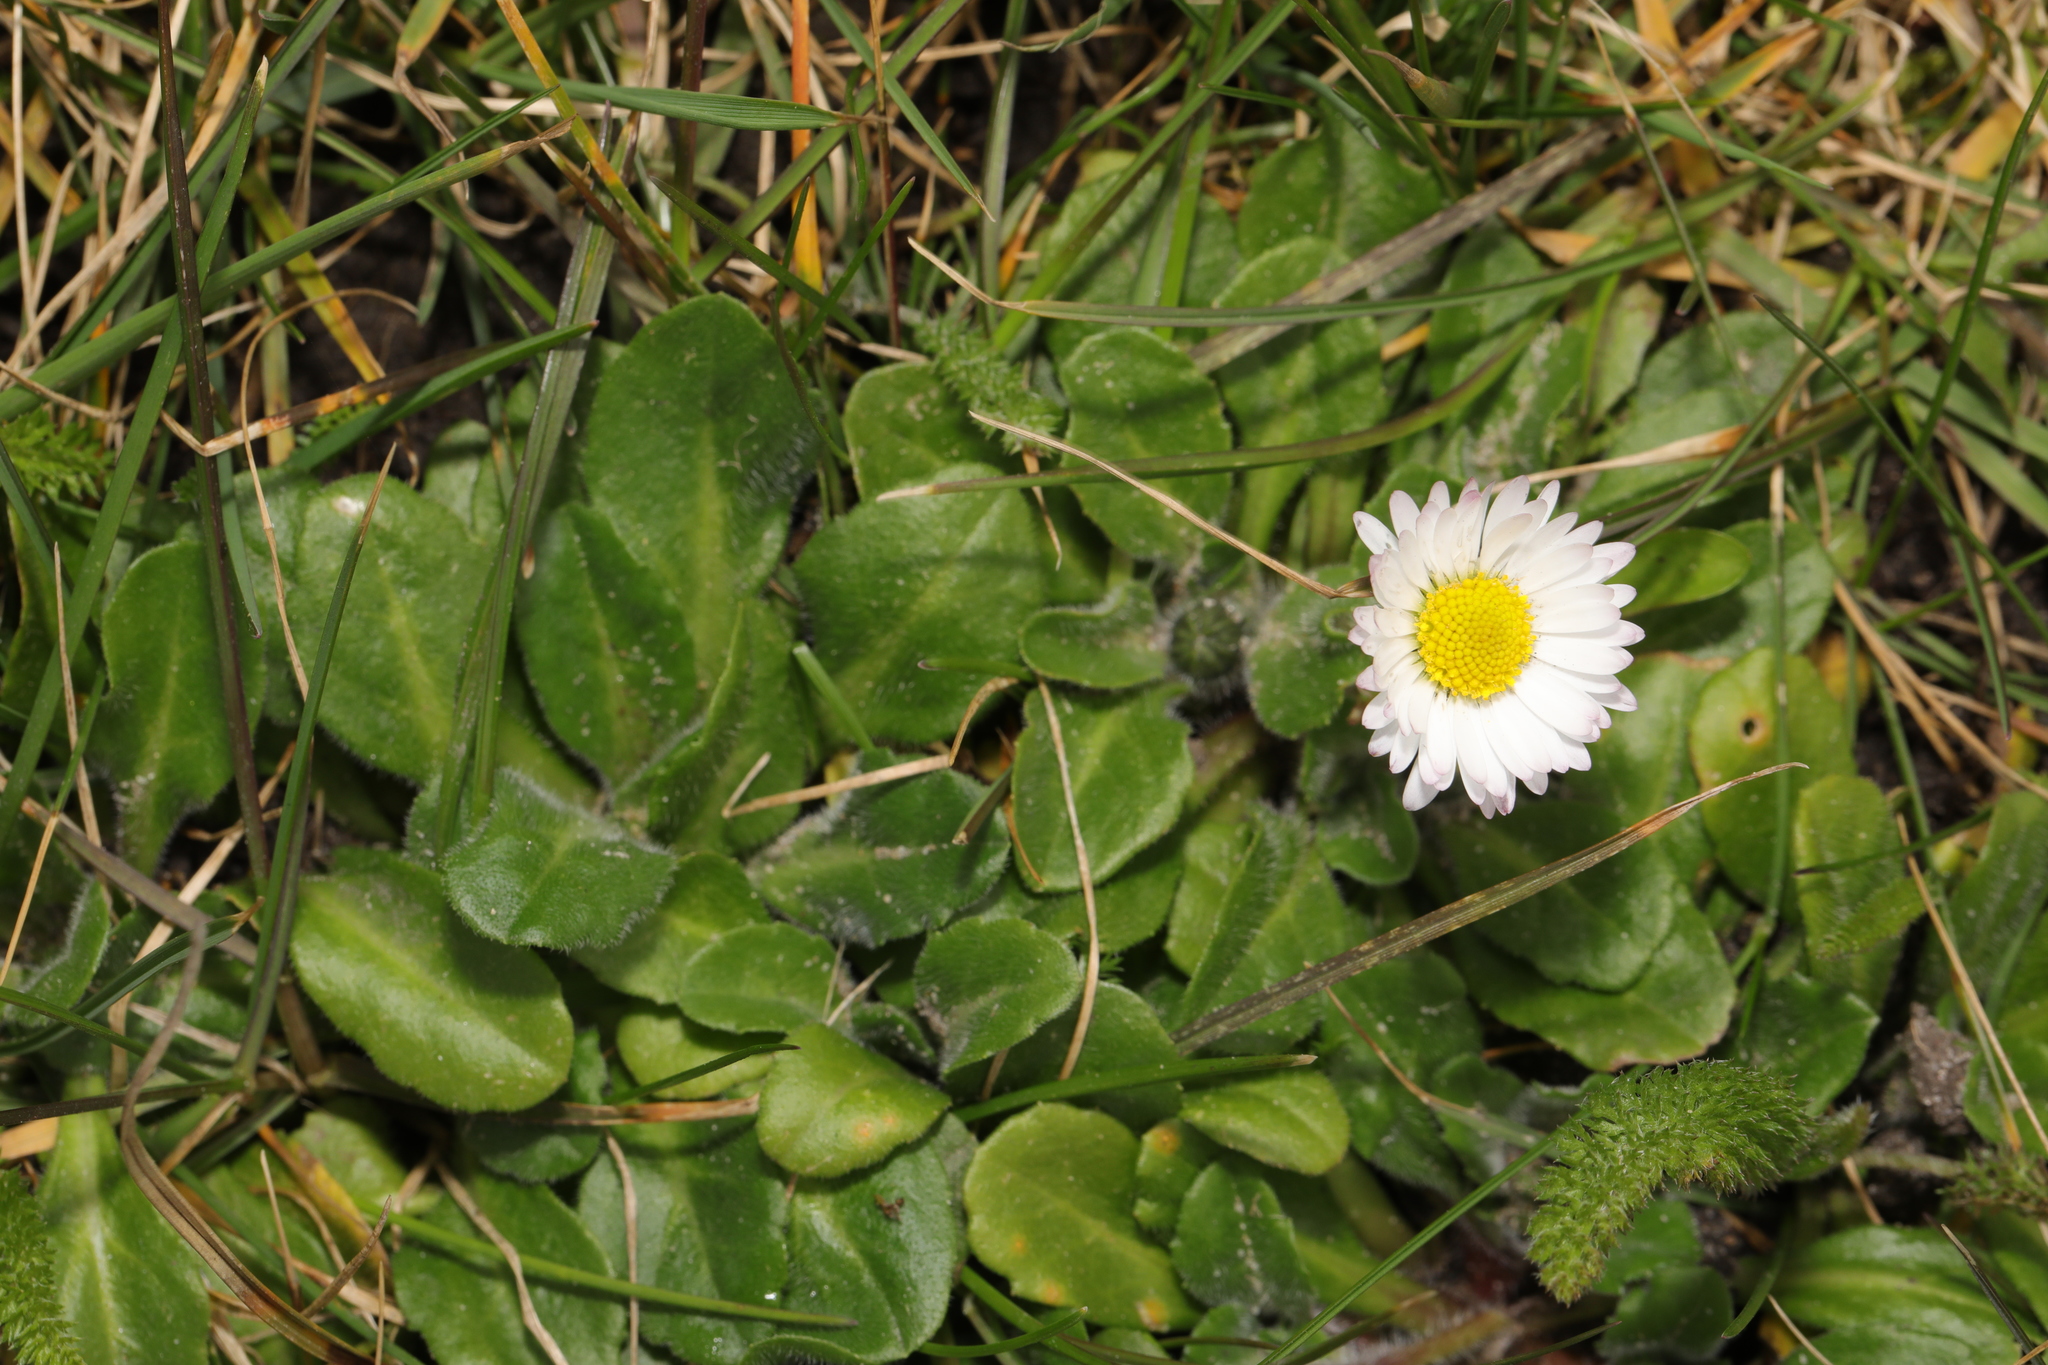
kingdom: Plantae
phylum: Tracheophyta
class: Magnoliopsida
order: Asterales
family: Asteraceae
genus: Bellis
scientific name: Bellis perennis
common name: Lawndaisy
